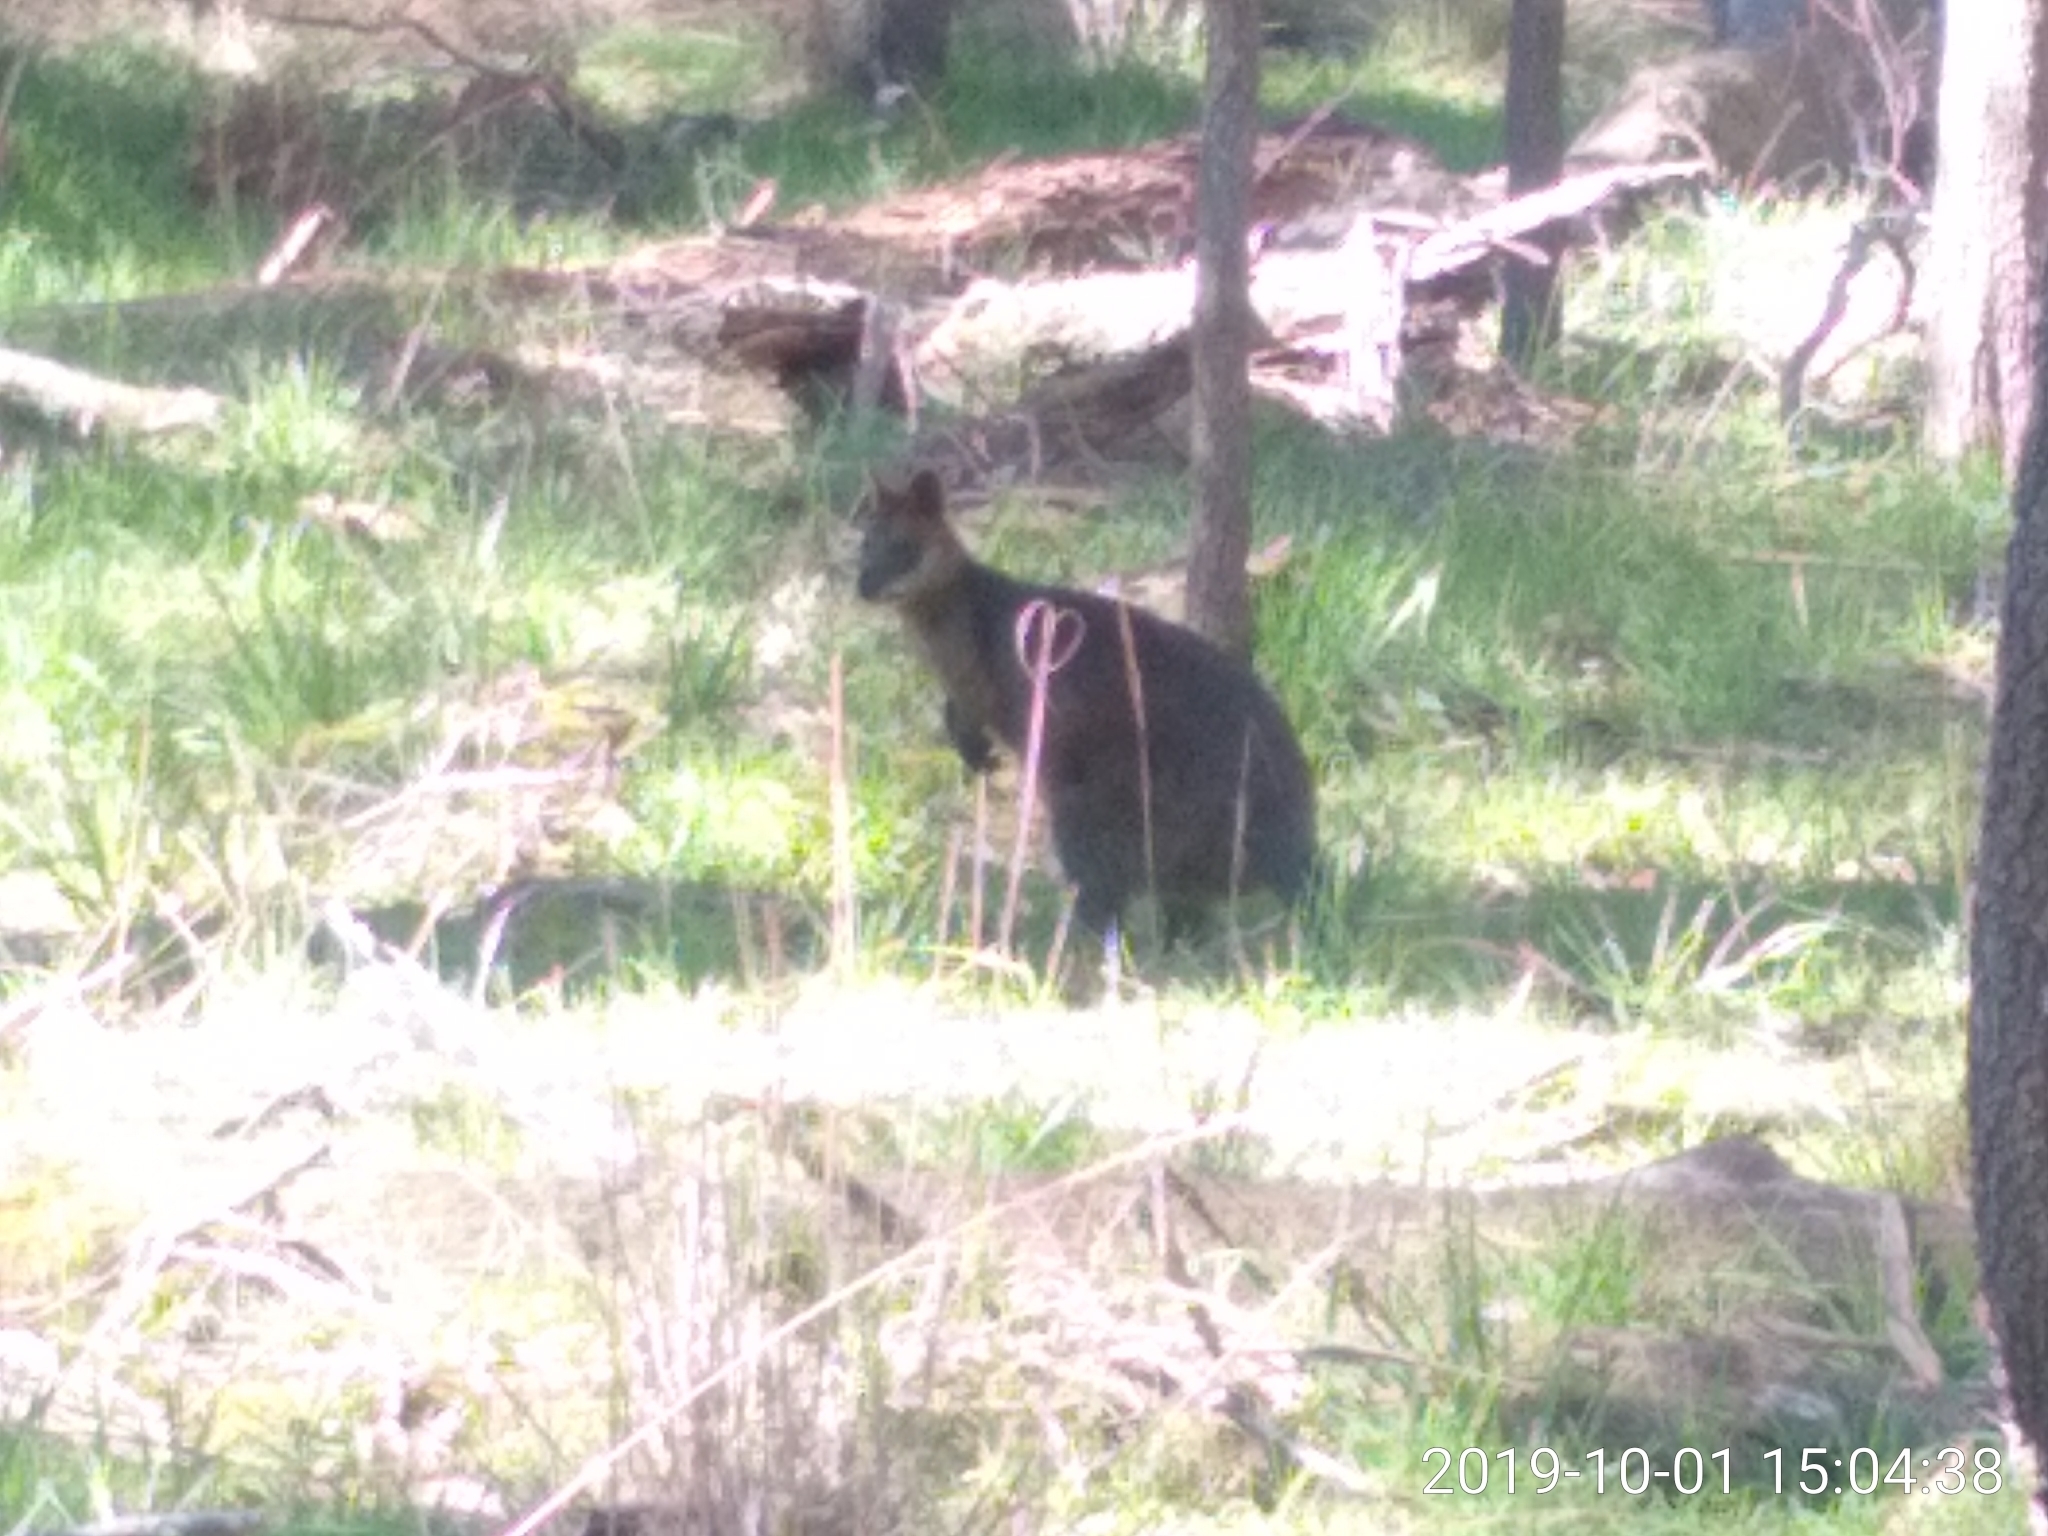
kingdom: Animalia
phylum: Chordata
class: Mammalia
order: Diprotodontia
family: Macropodidae
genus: Wallabia
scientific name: Wallabia bicolor
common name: Swamp wallaby
